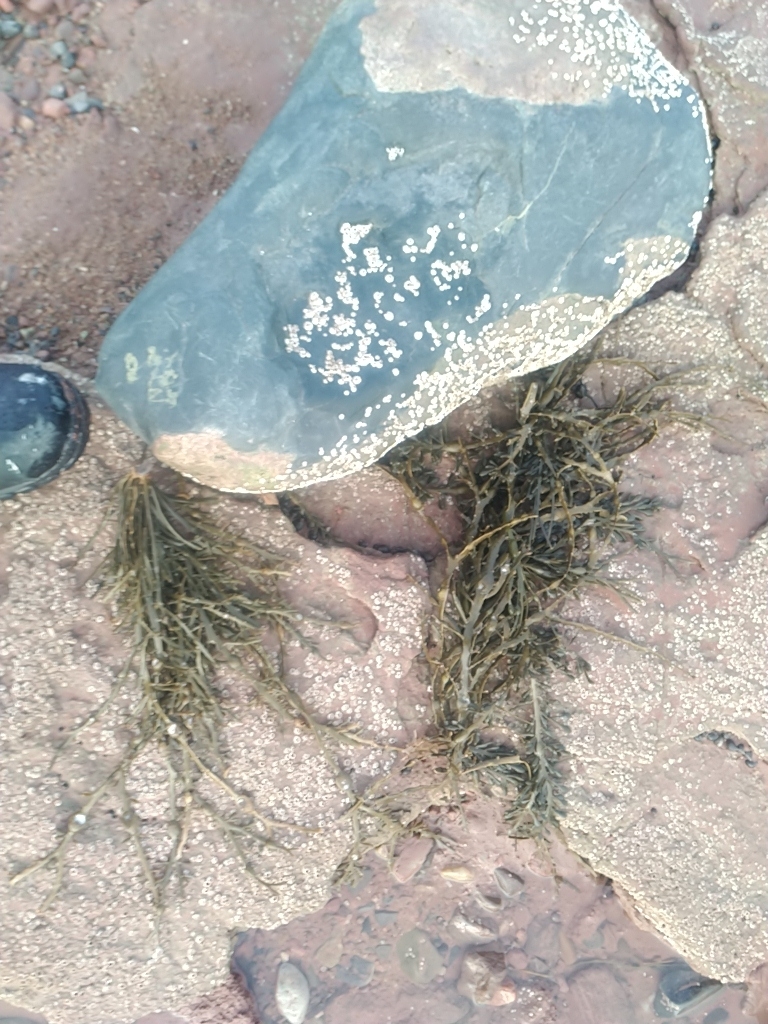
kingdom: Chromista
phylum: Ochrophyta
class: Phaeophyceae
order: Fucales
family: Fucaceae
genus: Ascophyllum
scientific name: Ascophyllum nodosum
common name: Knotted wrack
